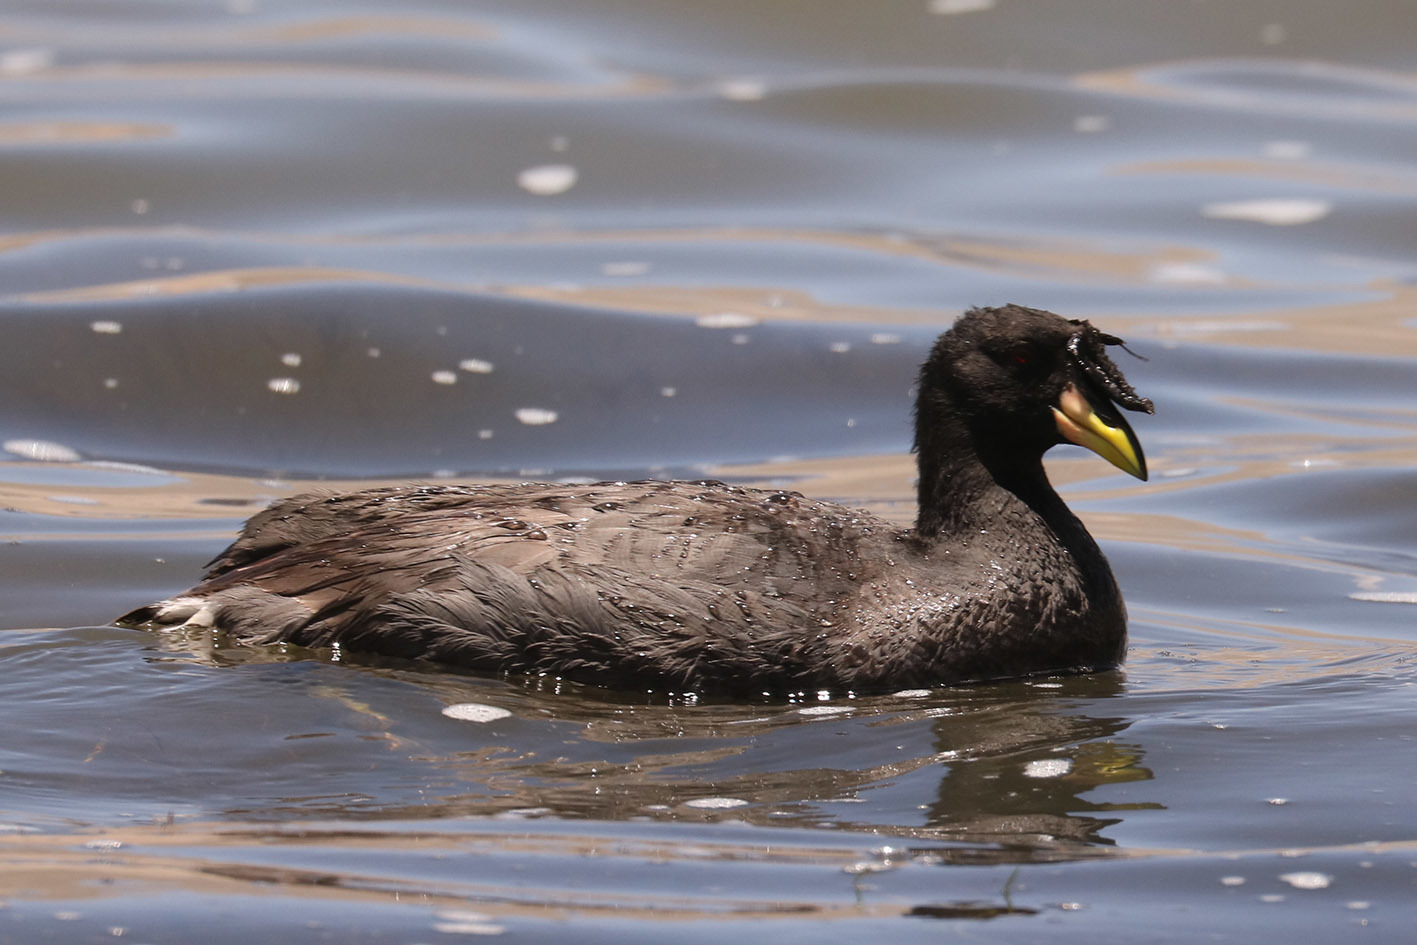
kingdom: Animalia
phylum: Chordata
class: Aves
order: Gruiformes
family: Rallidae
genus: Fulica
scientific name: Fulica cornuta
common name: Horned coot
